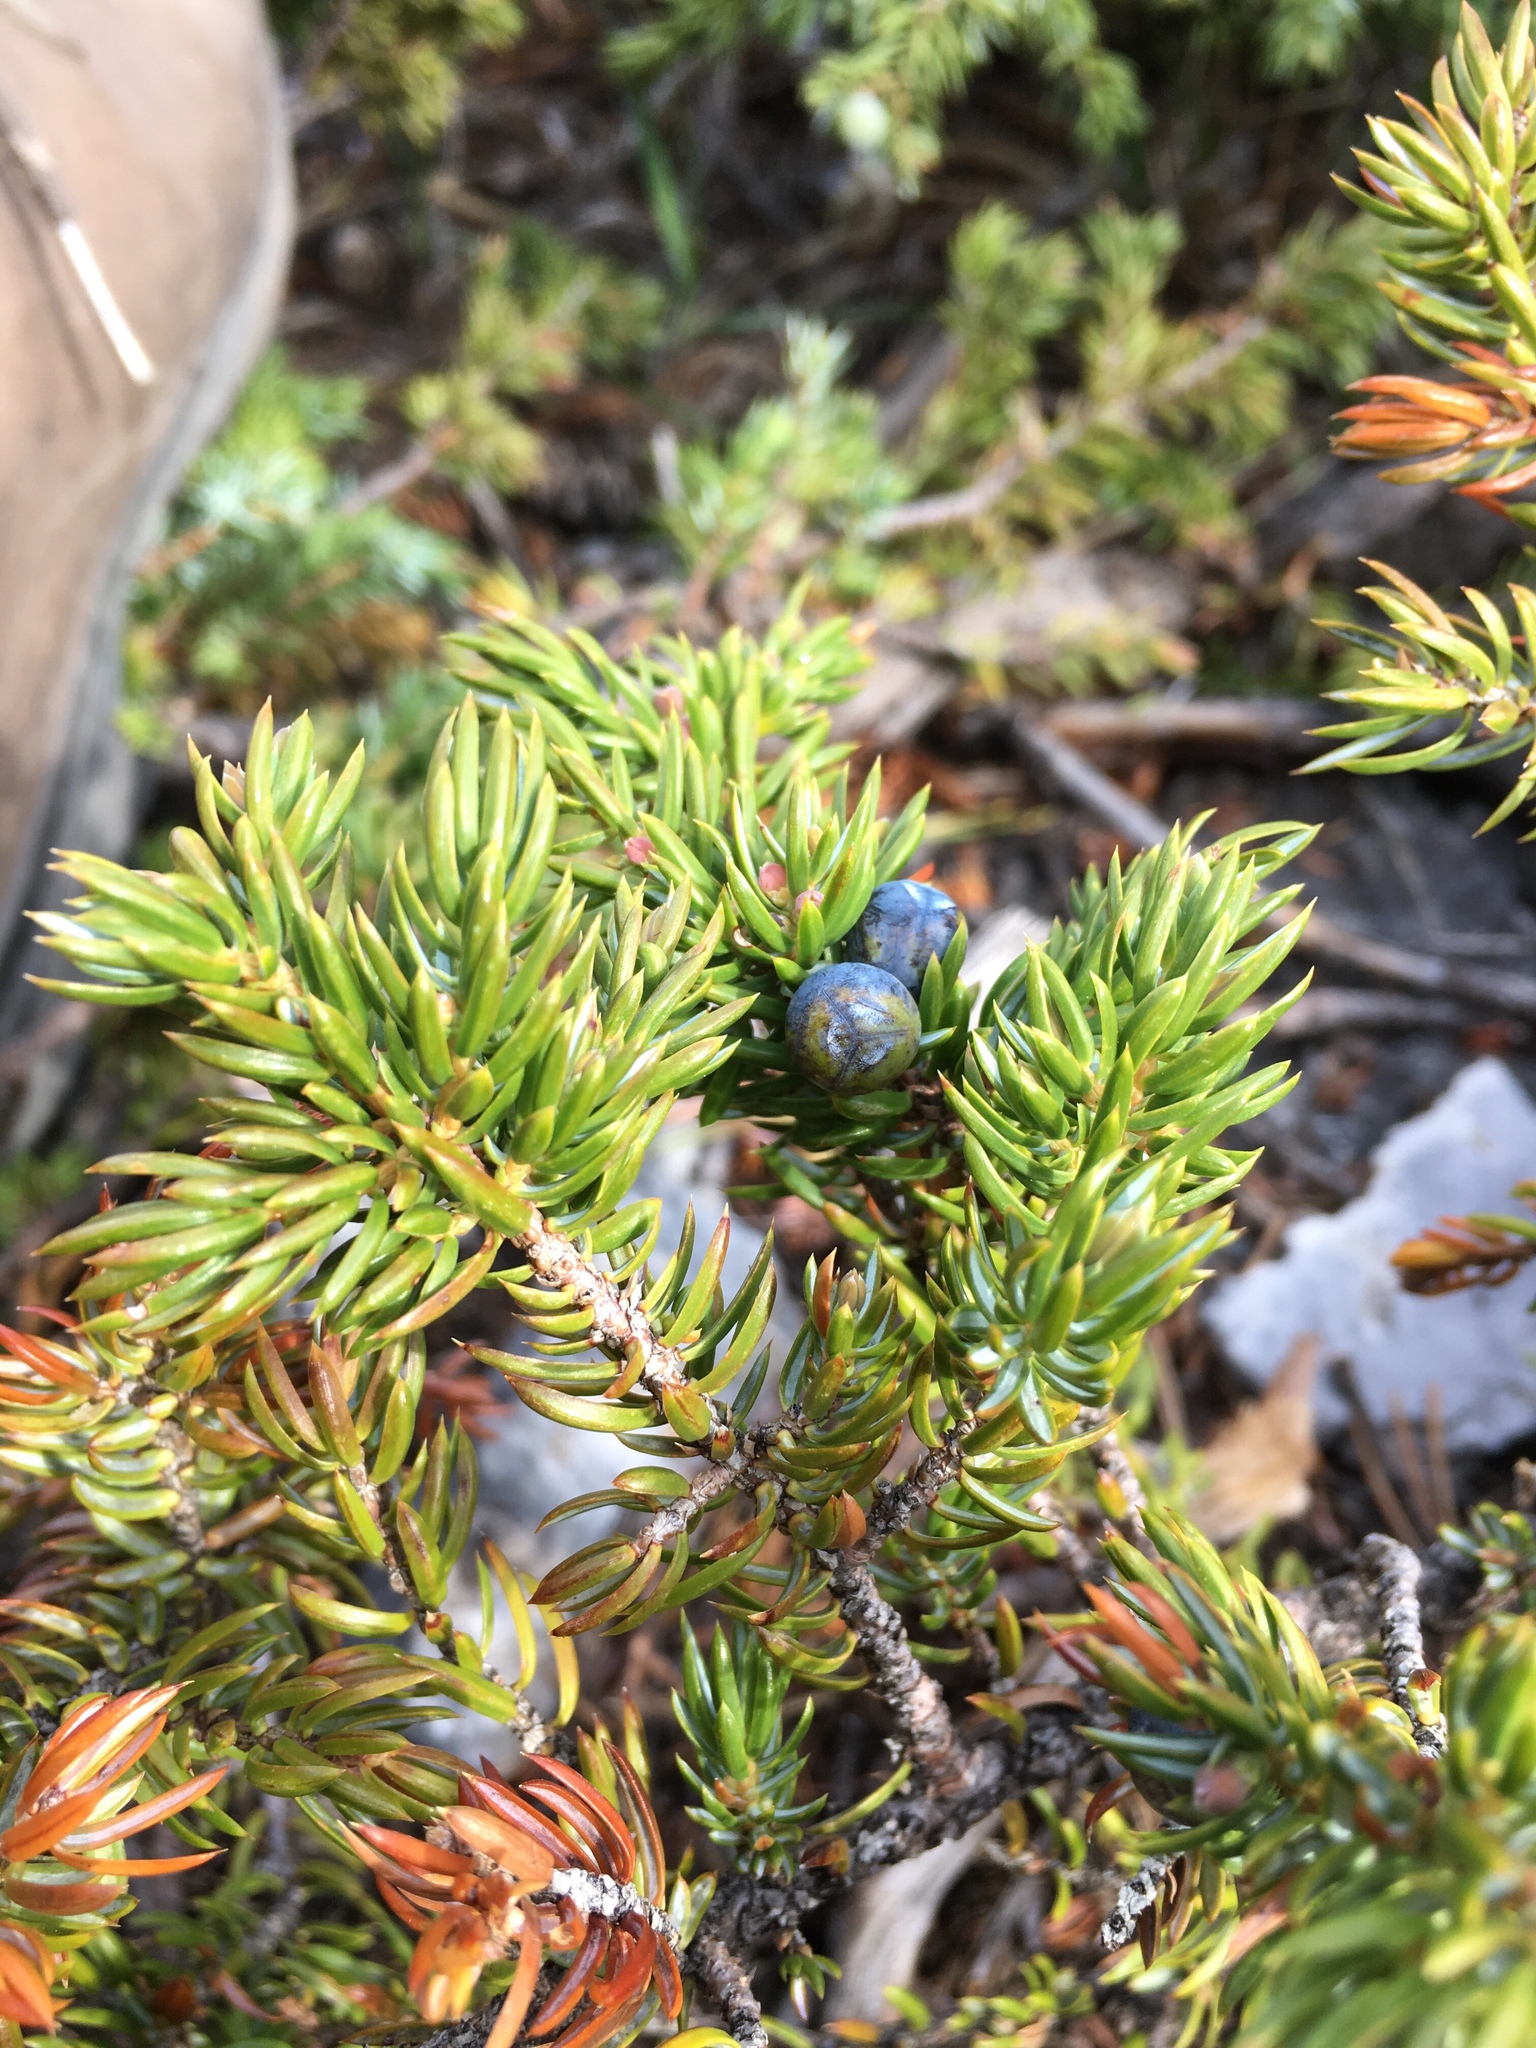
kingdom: Plantae
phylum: Tracheophyta
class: Pinopsida
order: Pinales
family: Cupressaceae
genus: Juniperus
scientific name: Juniperus communis
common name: Common juniper
